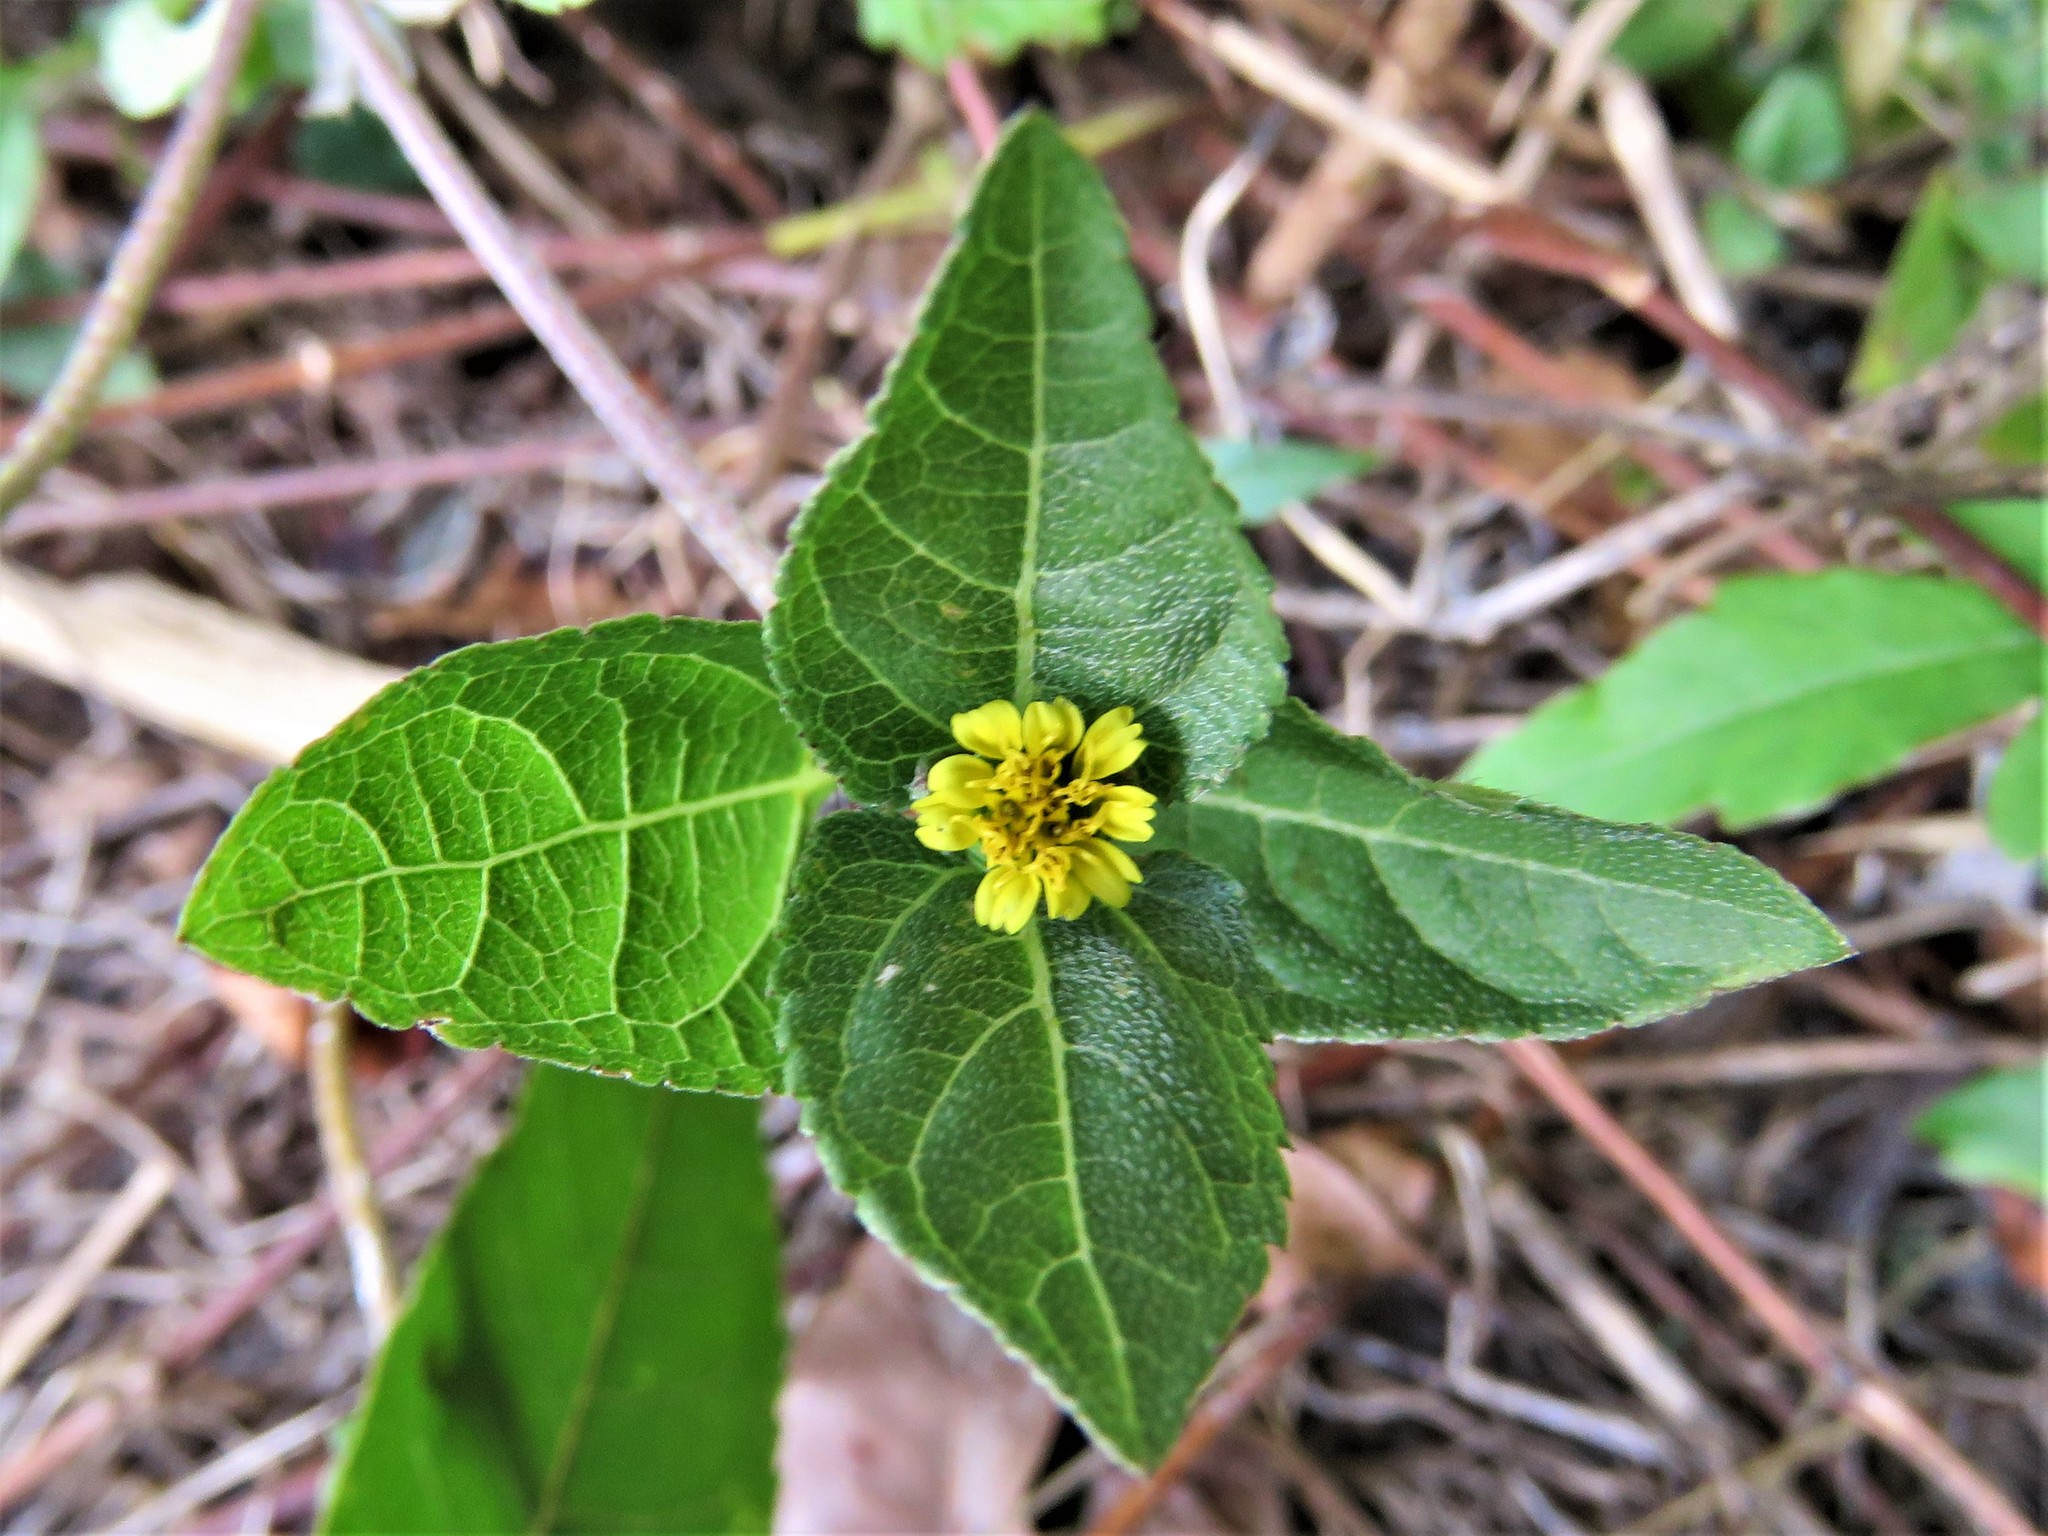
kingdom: Plantae
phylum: Tracheophyta
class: Magnoliopsida
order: Asterales
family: Asteraceae
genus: Calyptocarpus
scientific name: Calyptocarpus vialis
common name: Straggler daisy
